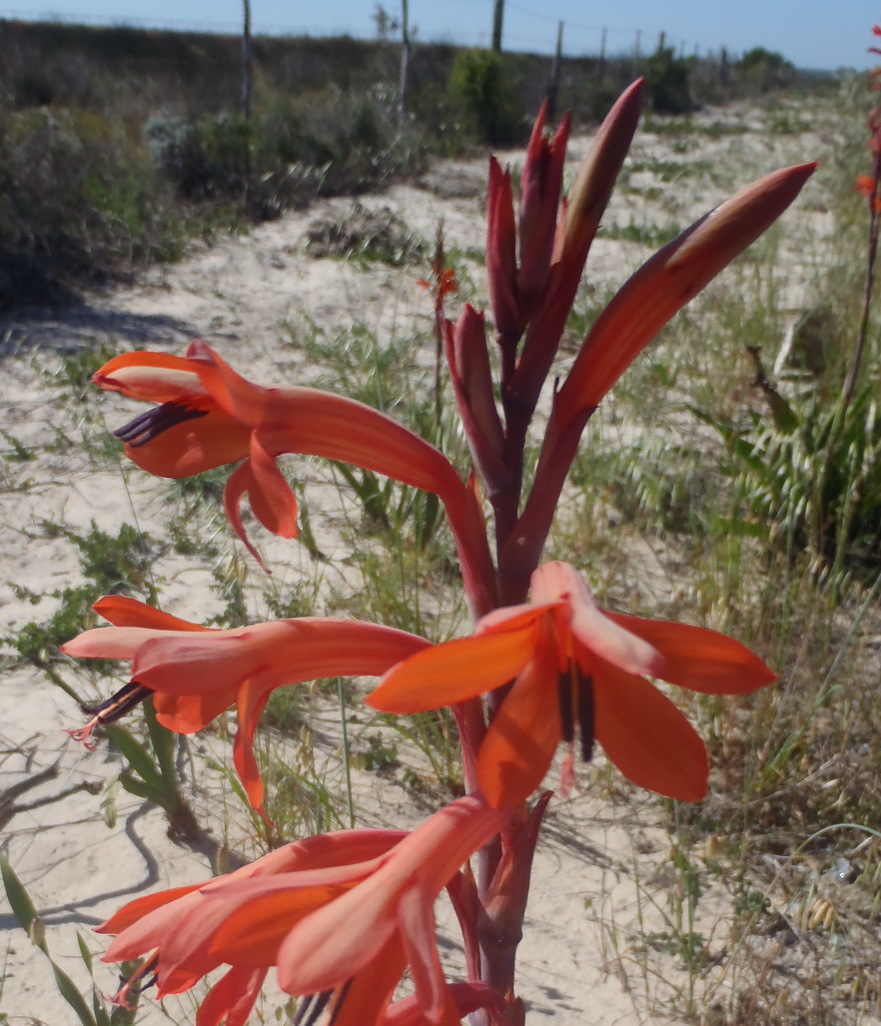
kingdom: Plantae
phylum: Tracheophyta
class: Liliopsida
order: Asparagales
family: Iridaceae
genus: Watsonia
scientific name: Watsonia meriana
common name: Bulbil bugle-lily
